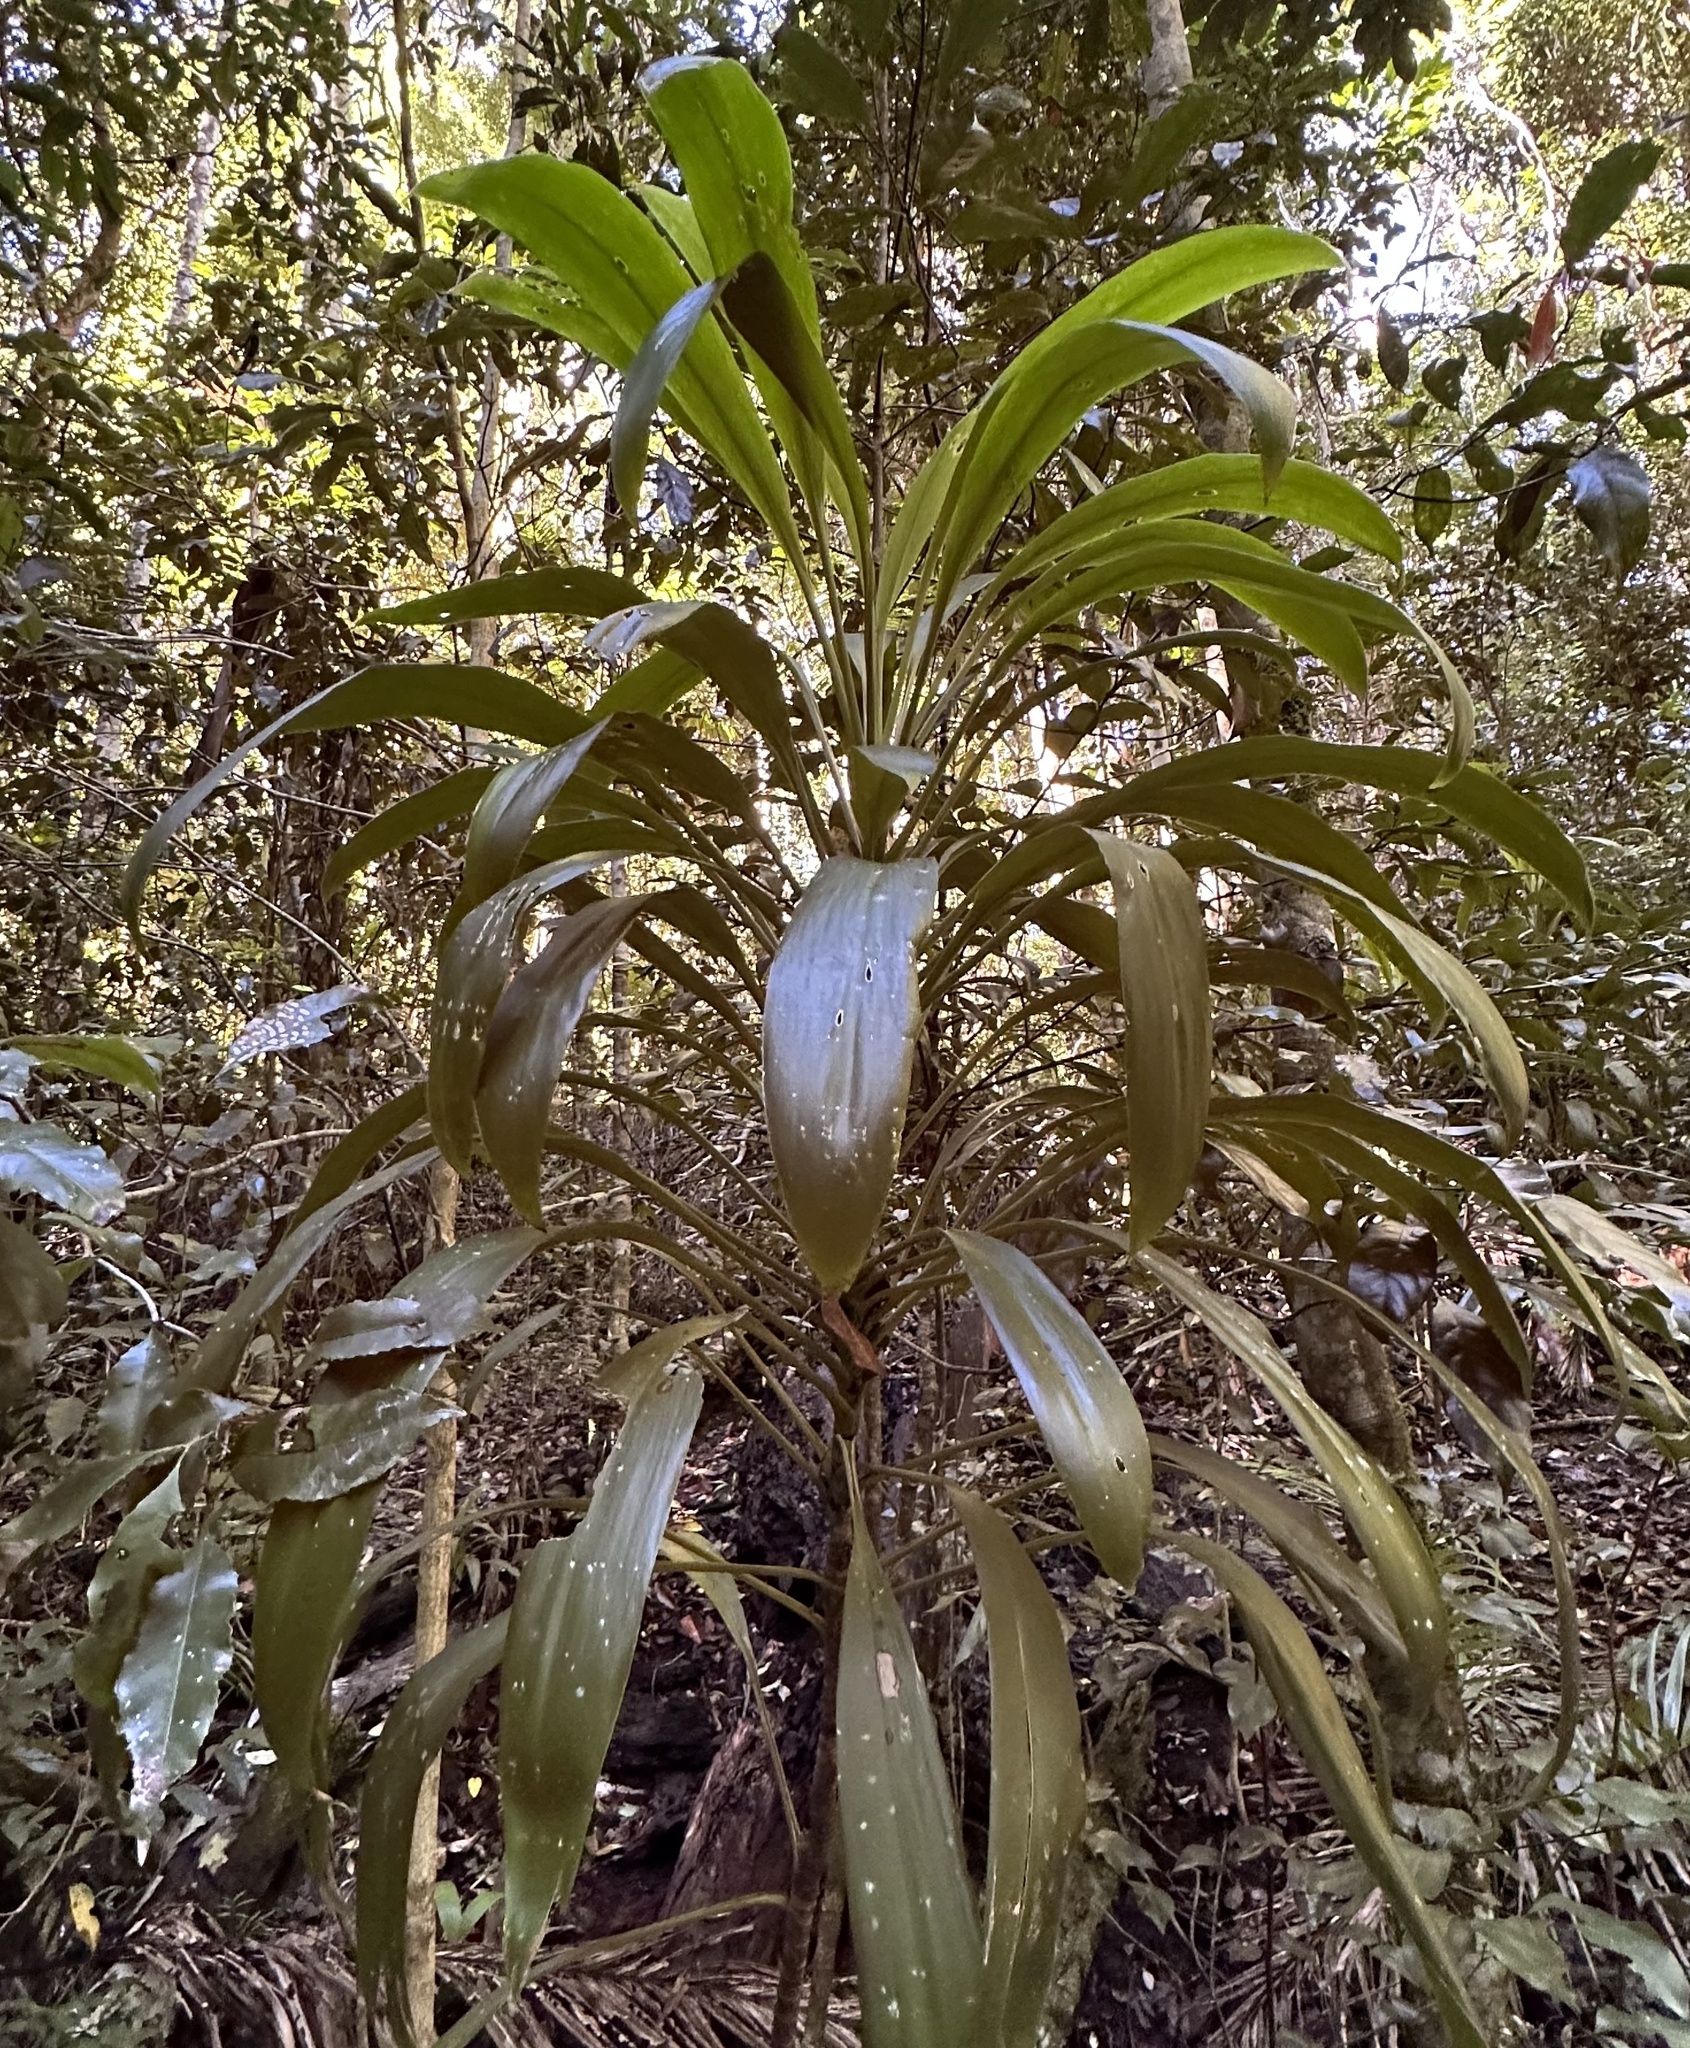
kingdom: Plantae
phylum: Tracheophyta
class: Liliopsida
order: Asparagales
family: Asparagaceae
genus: Cordyline
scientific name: Cordyline rubra
